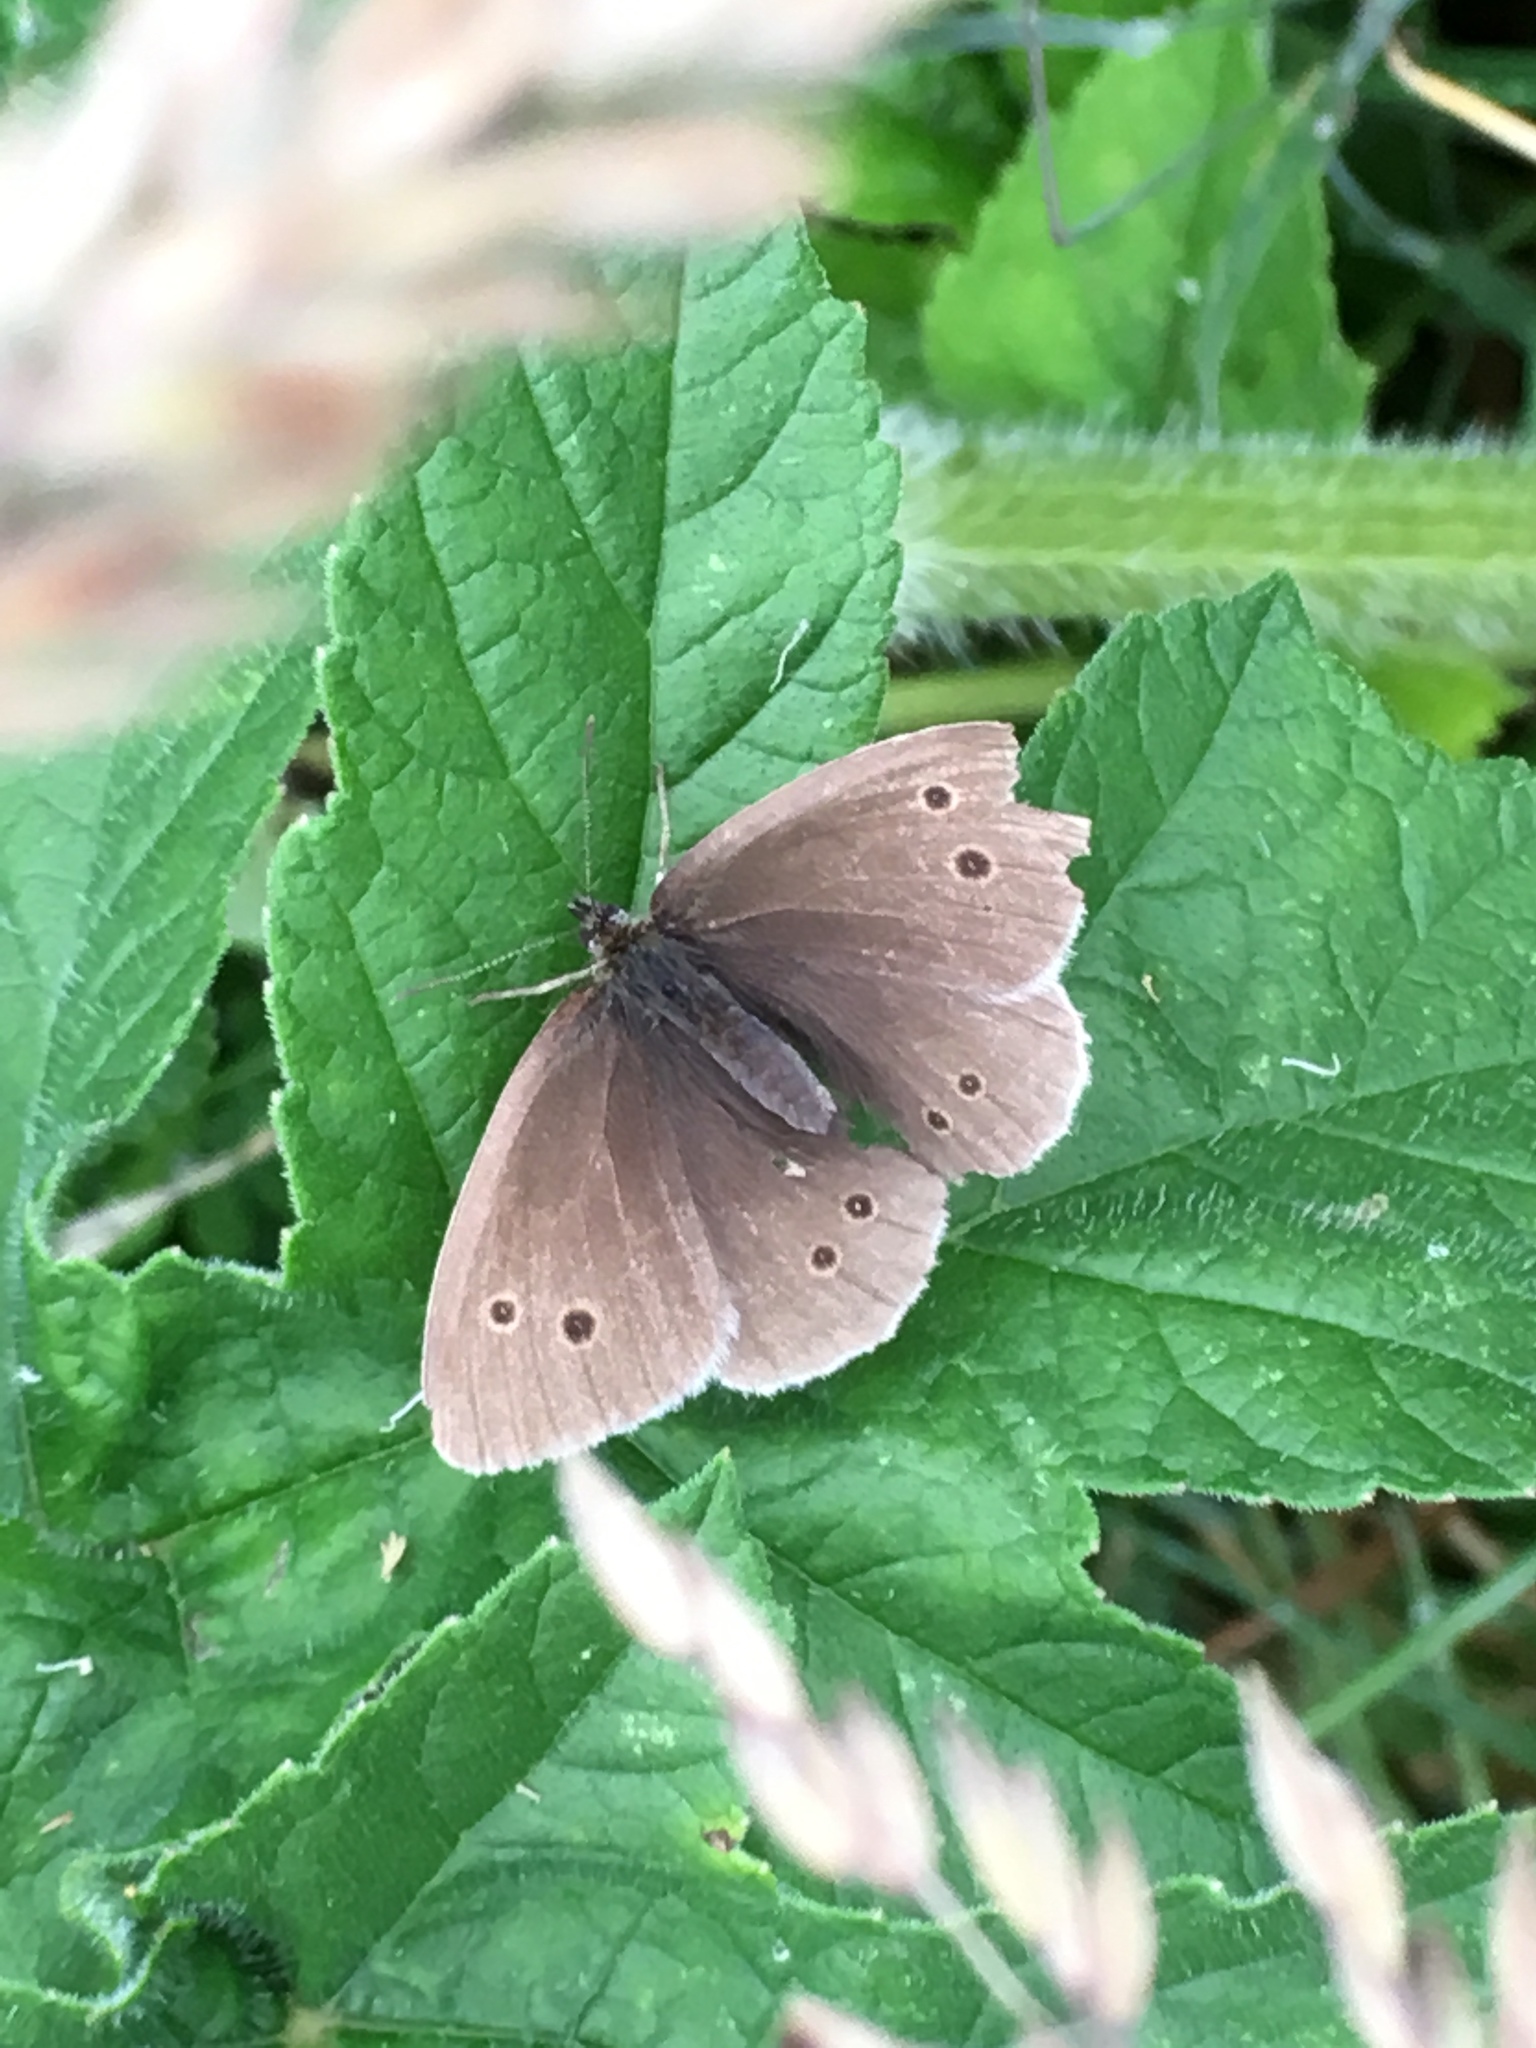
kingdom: Animalia
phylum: Arthropoda
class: Insecta
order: Lepidoptera
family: Nymphalidae
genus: Aphantopus
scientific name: Aphantopus hyperantus
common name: Ringlet
